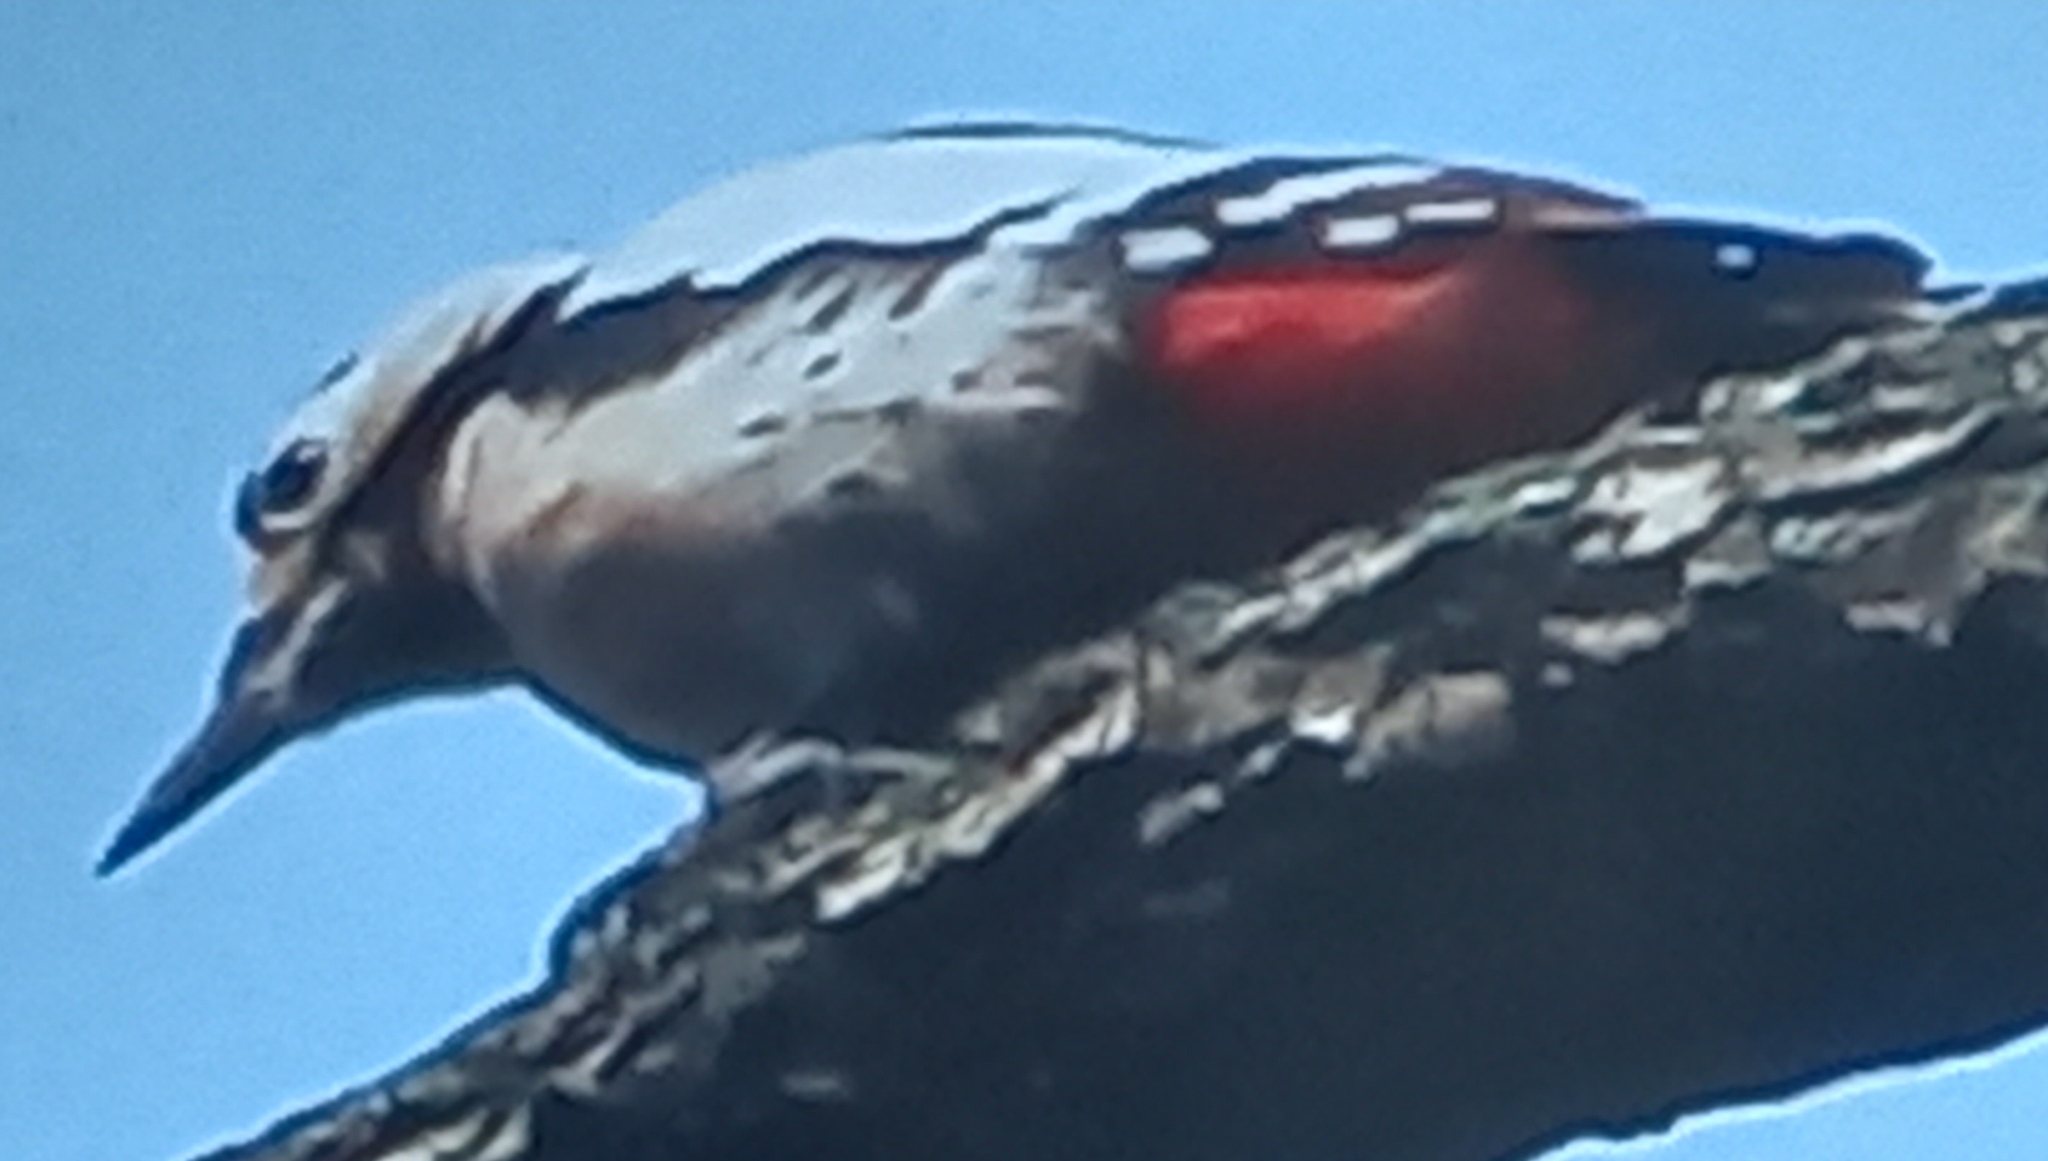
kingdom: Animalia
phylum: Chordata
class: Aves
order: Piciformes
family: Picidae
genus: Dendrocopos
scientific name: Dendrocopos major
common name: Great spotted woodpecker
